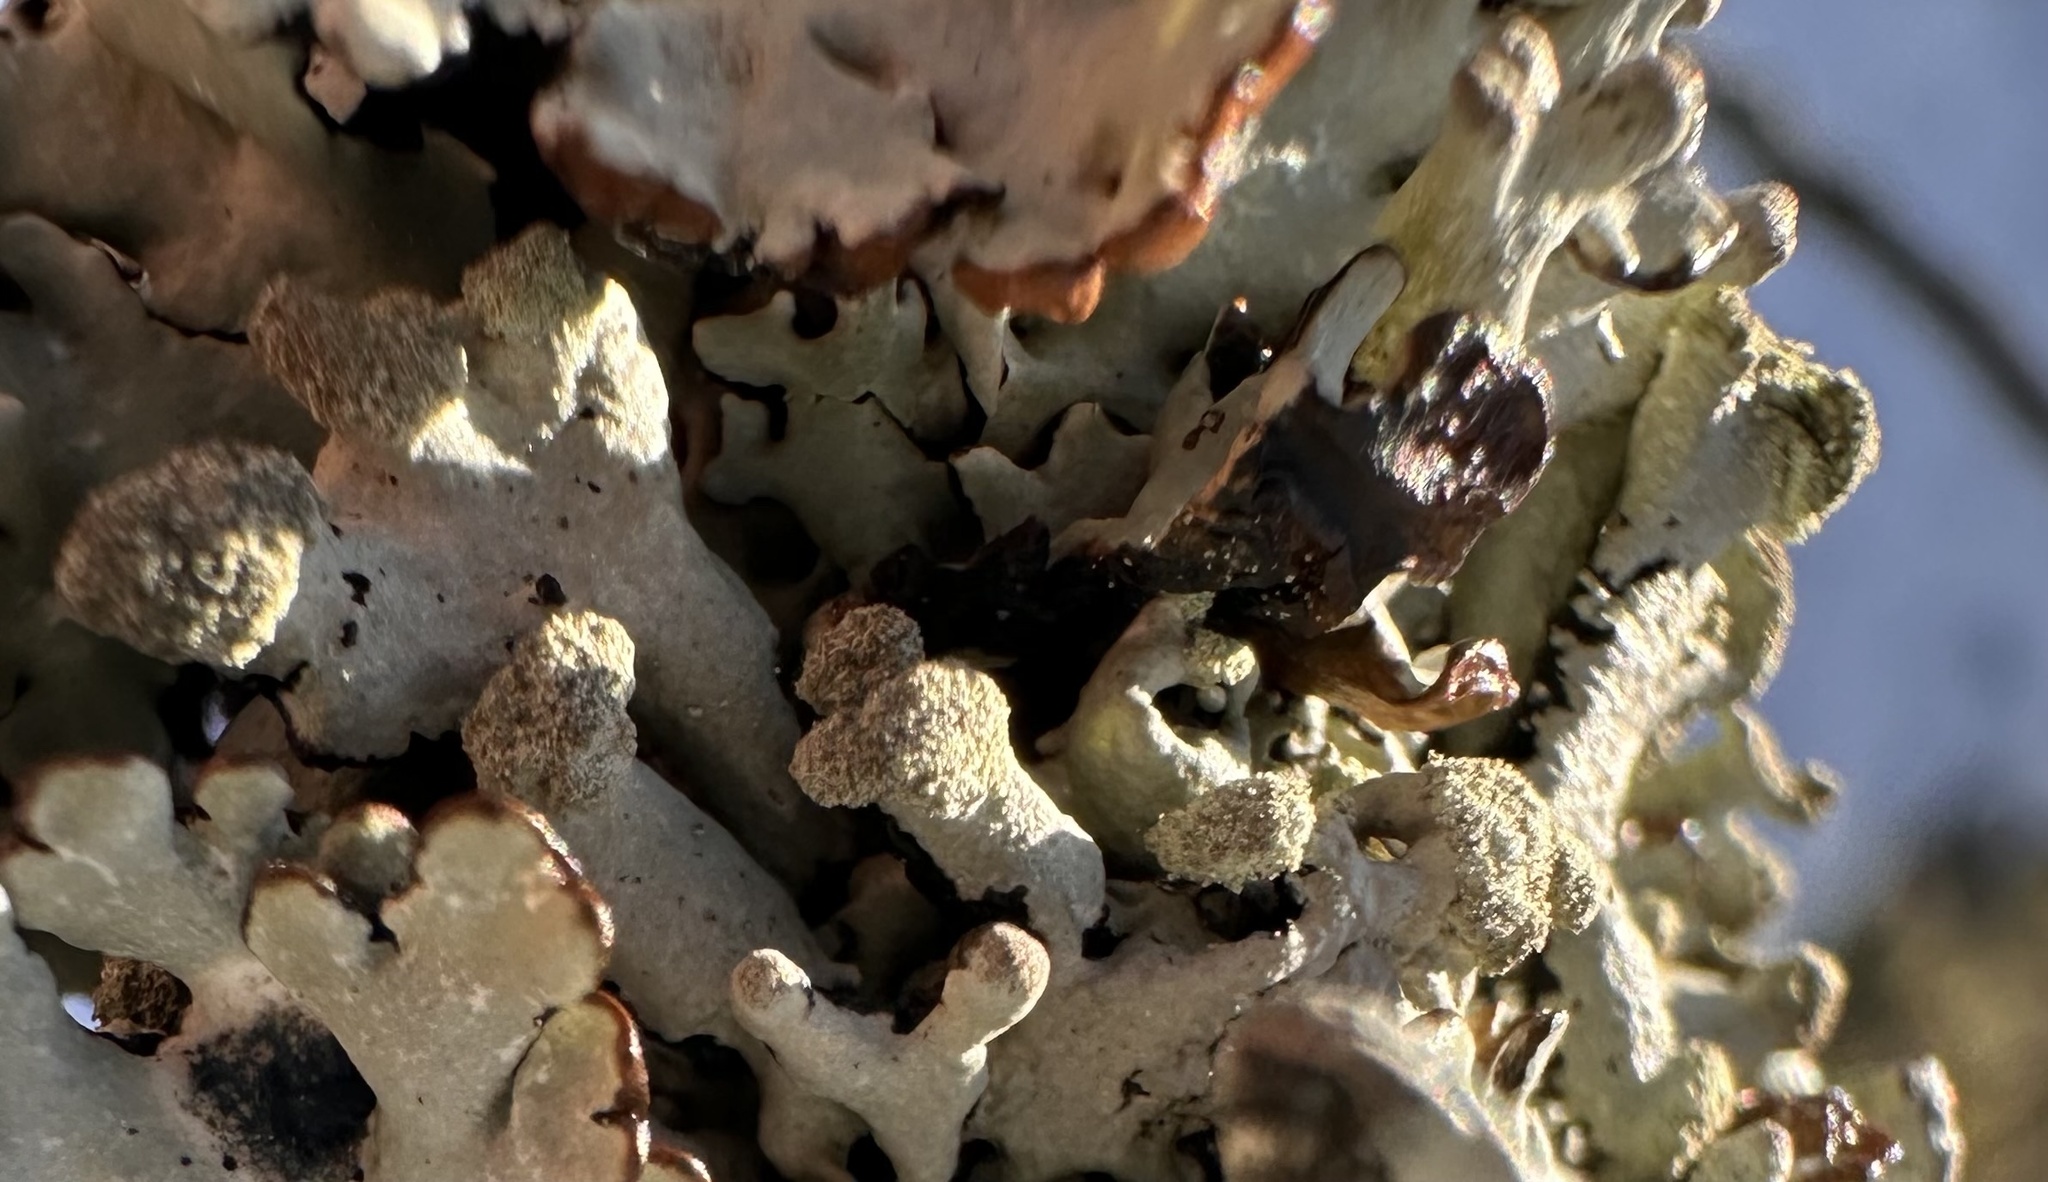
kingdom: Fungi
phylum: Ascomycota
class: Lecanoromycetes
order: Lecanorales
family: Parmeliaceae
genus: Hypogymnia
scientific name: Hypogymnia tubulosa
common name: Powder-headed tube lichen
